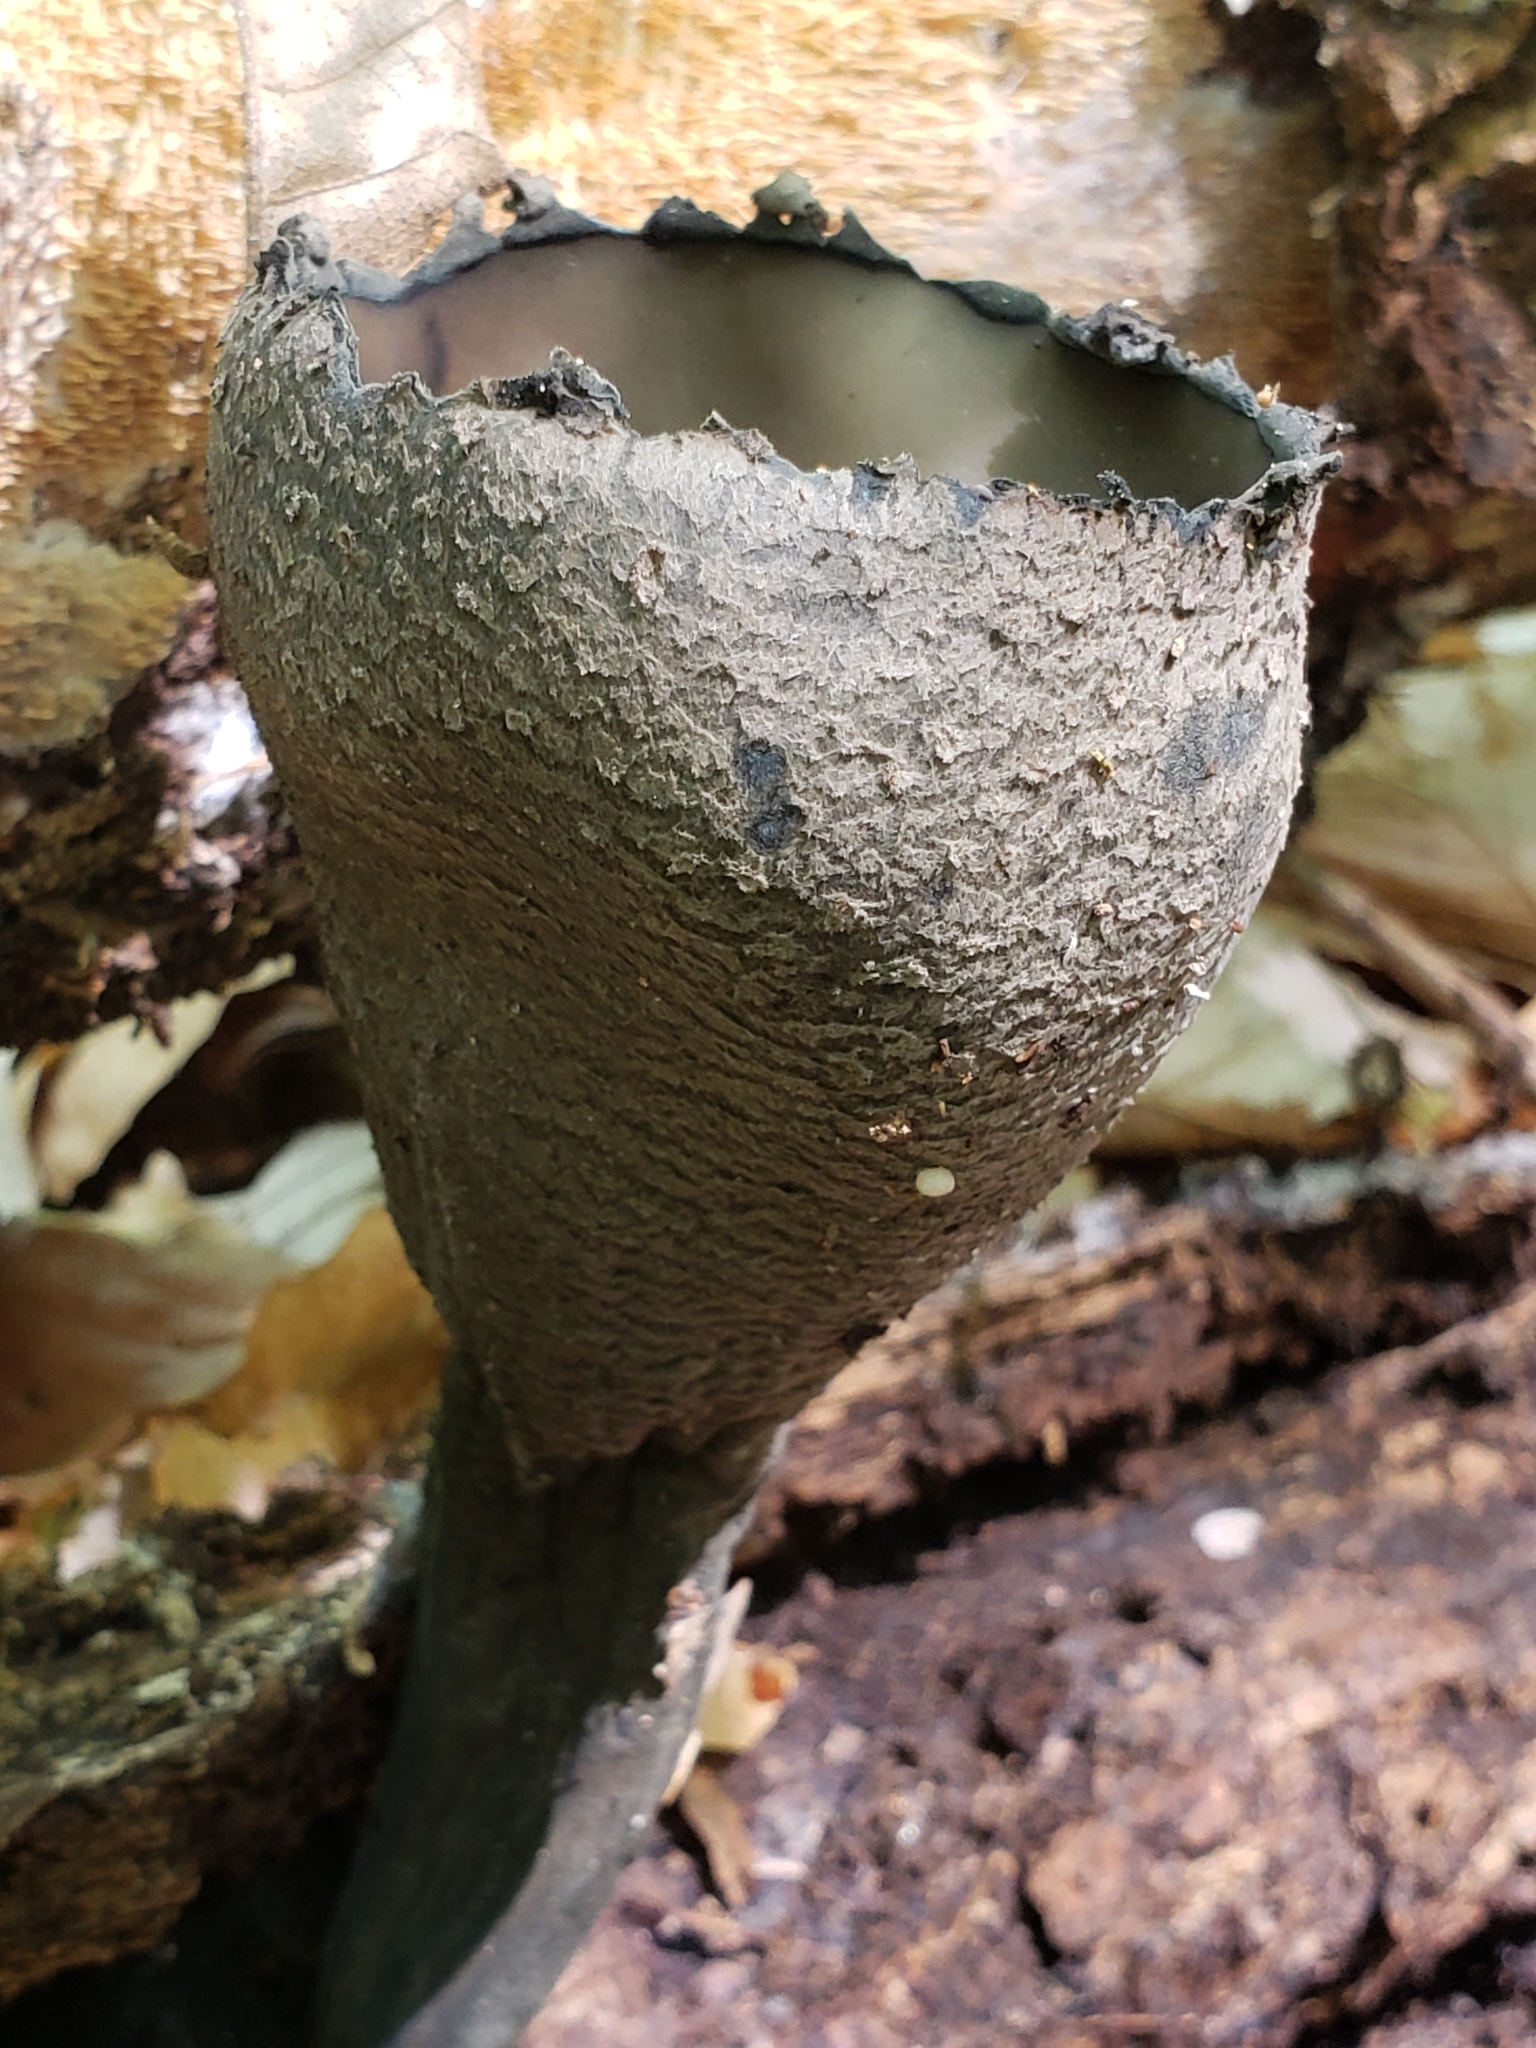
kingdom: Fungi
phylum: Ascomycota
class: Pezizomycetes
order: Pezizales
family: Sarcosomataceae
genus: Urnula
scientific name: Urnula craterium
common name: Devil's urn
